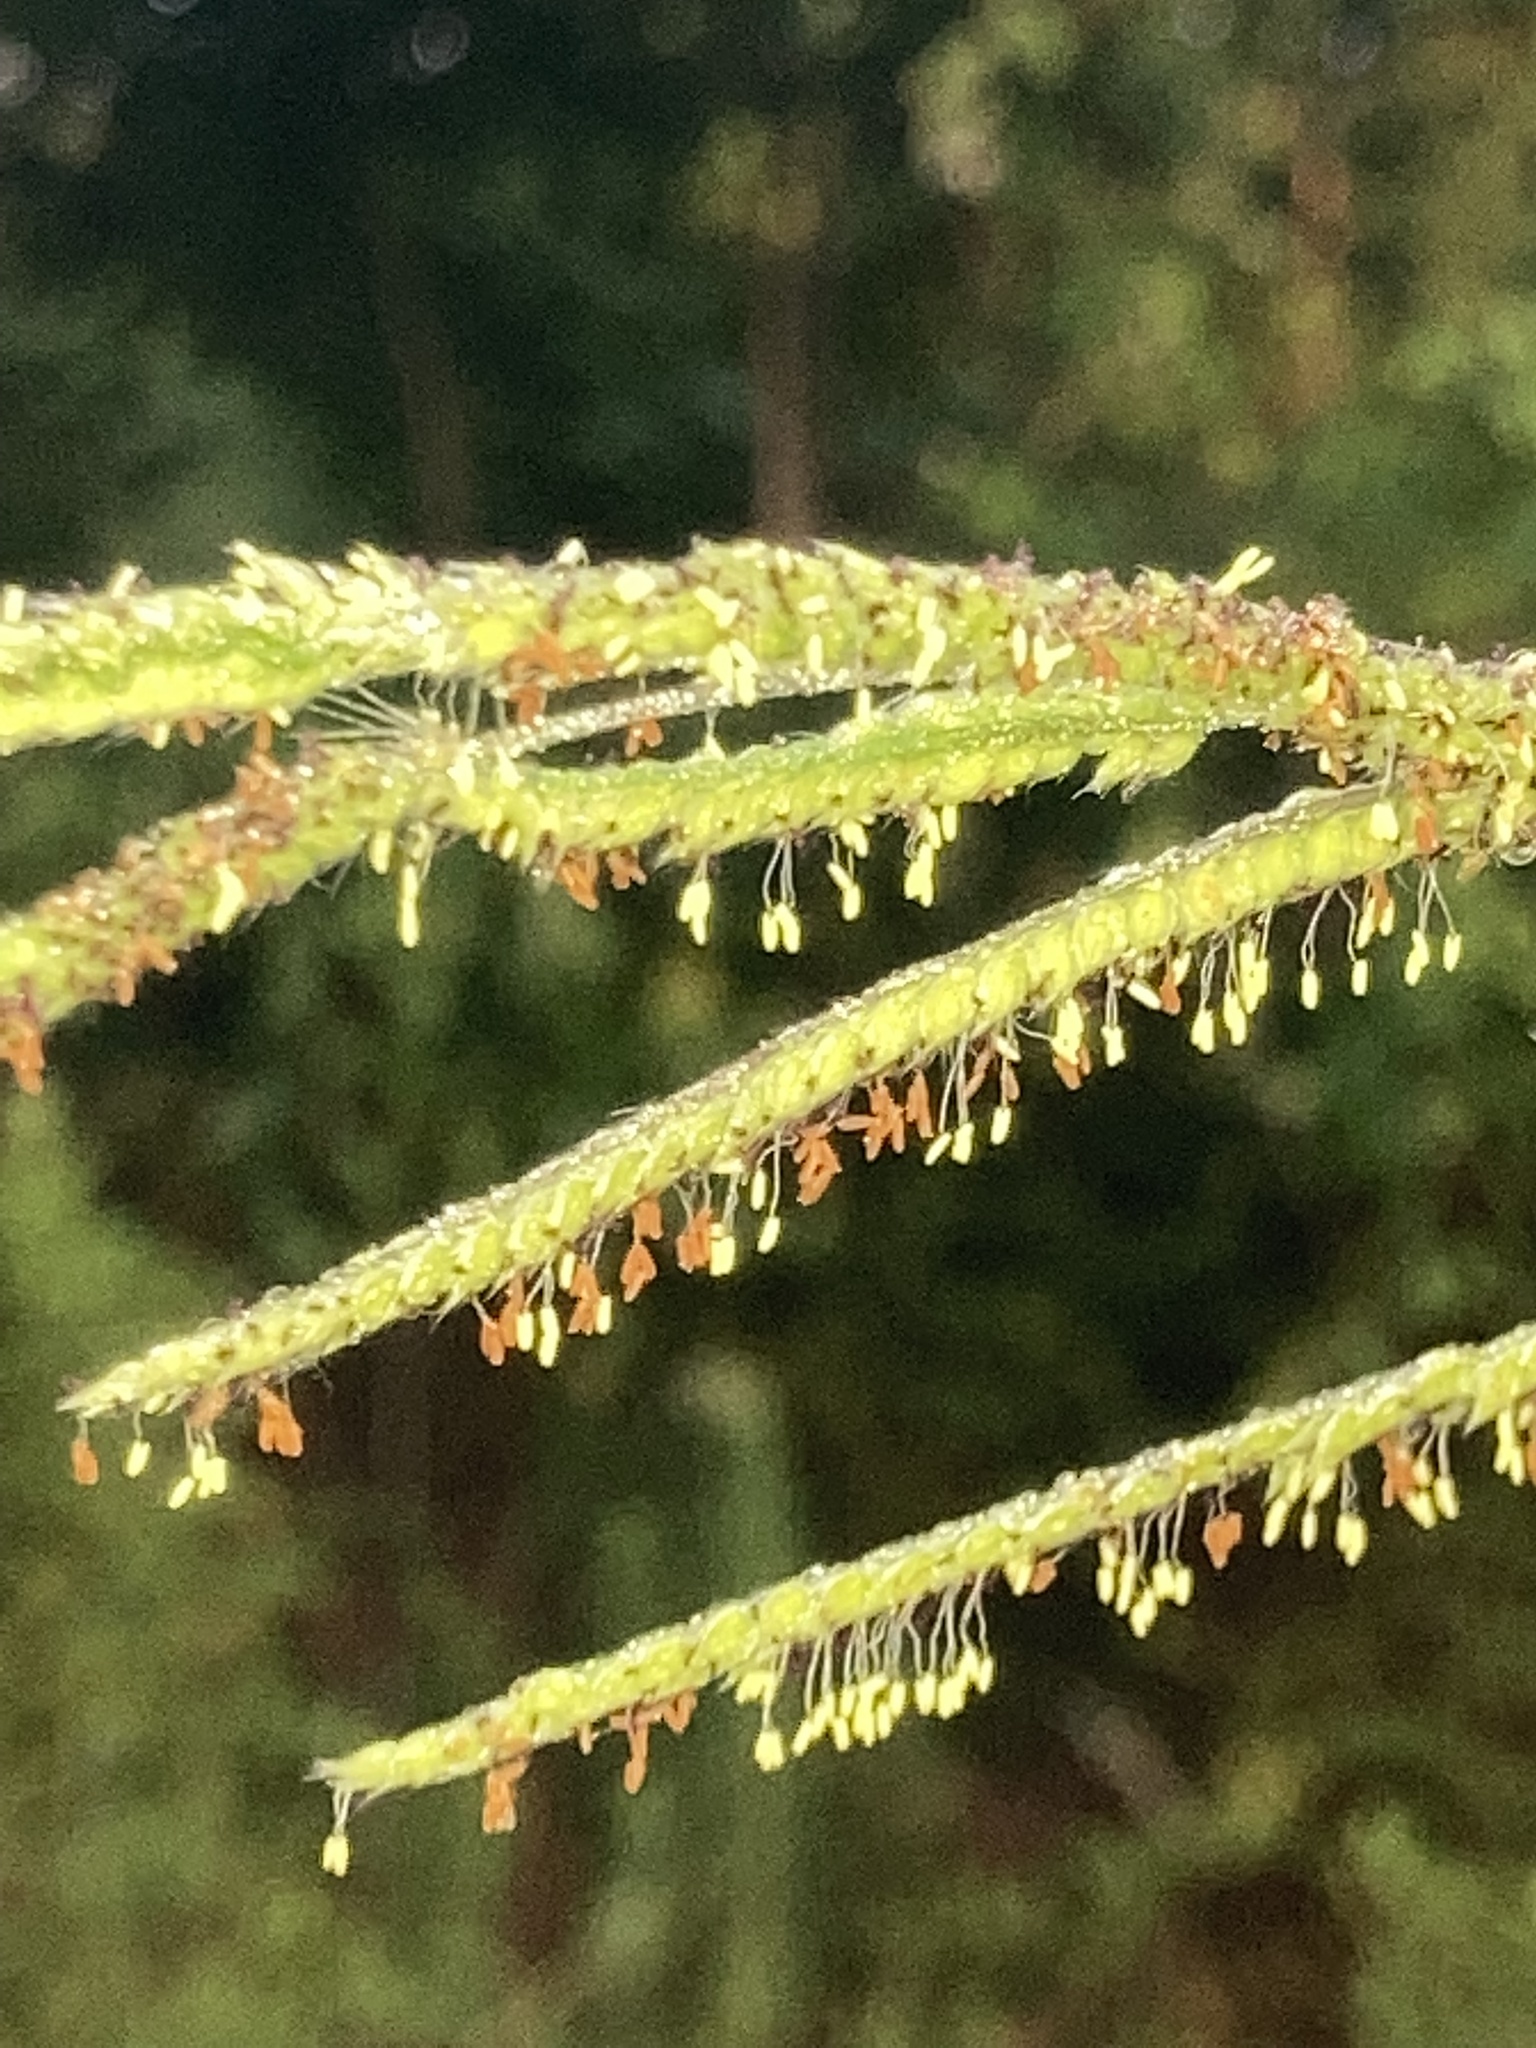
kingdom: Plantae
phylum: Tracheophyta
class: Liliopsida
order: Poales
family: Poaceae
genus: Paspalum
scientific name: Paspalum urvillei
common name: Vasey's grass
